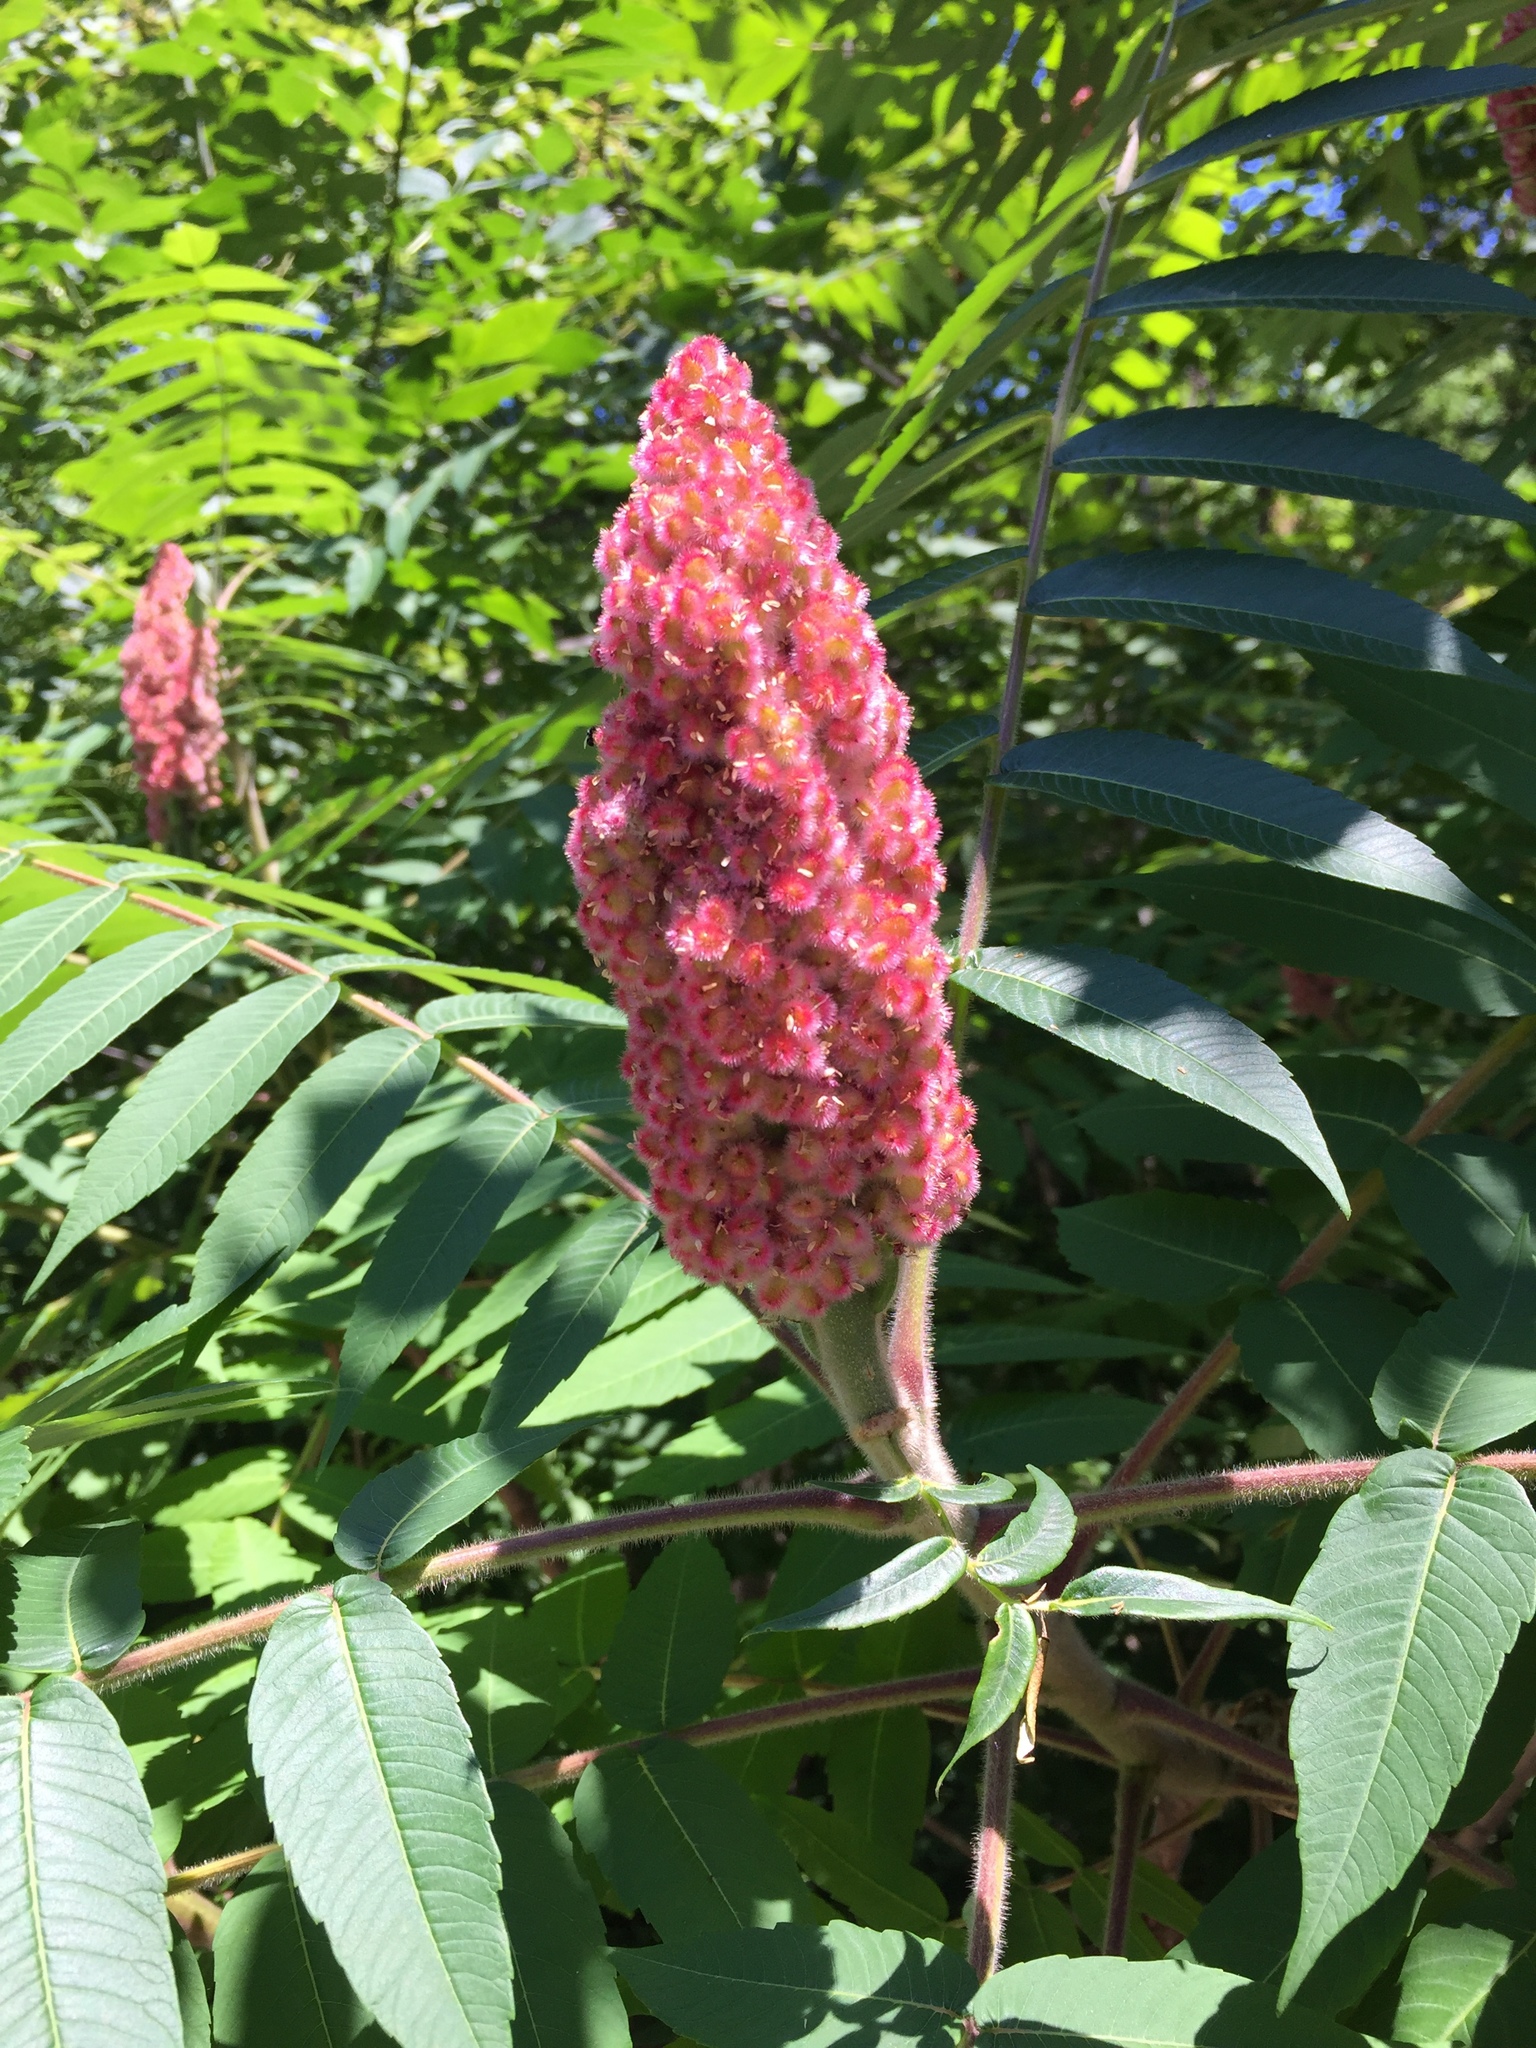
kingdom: Plantae
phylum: Tracheophyta
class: Magnoliopsida
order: Sapindales
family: Anacardiaceae
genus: Rhus
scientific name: Rhus typhina
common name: Staghorn sumac
